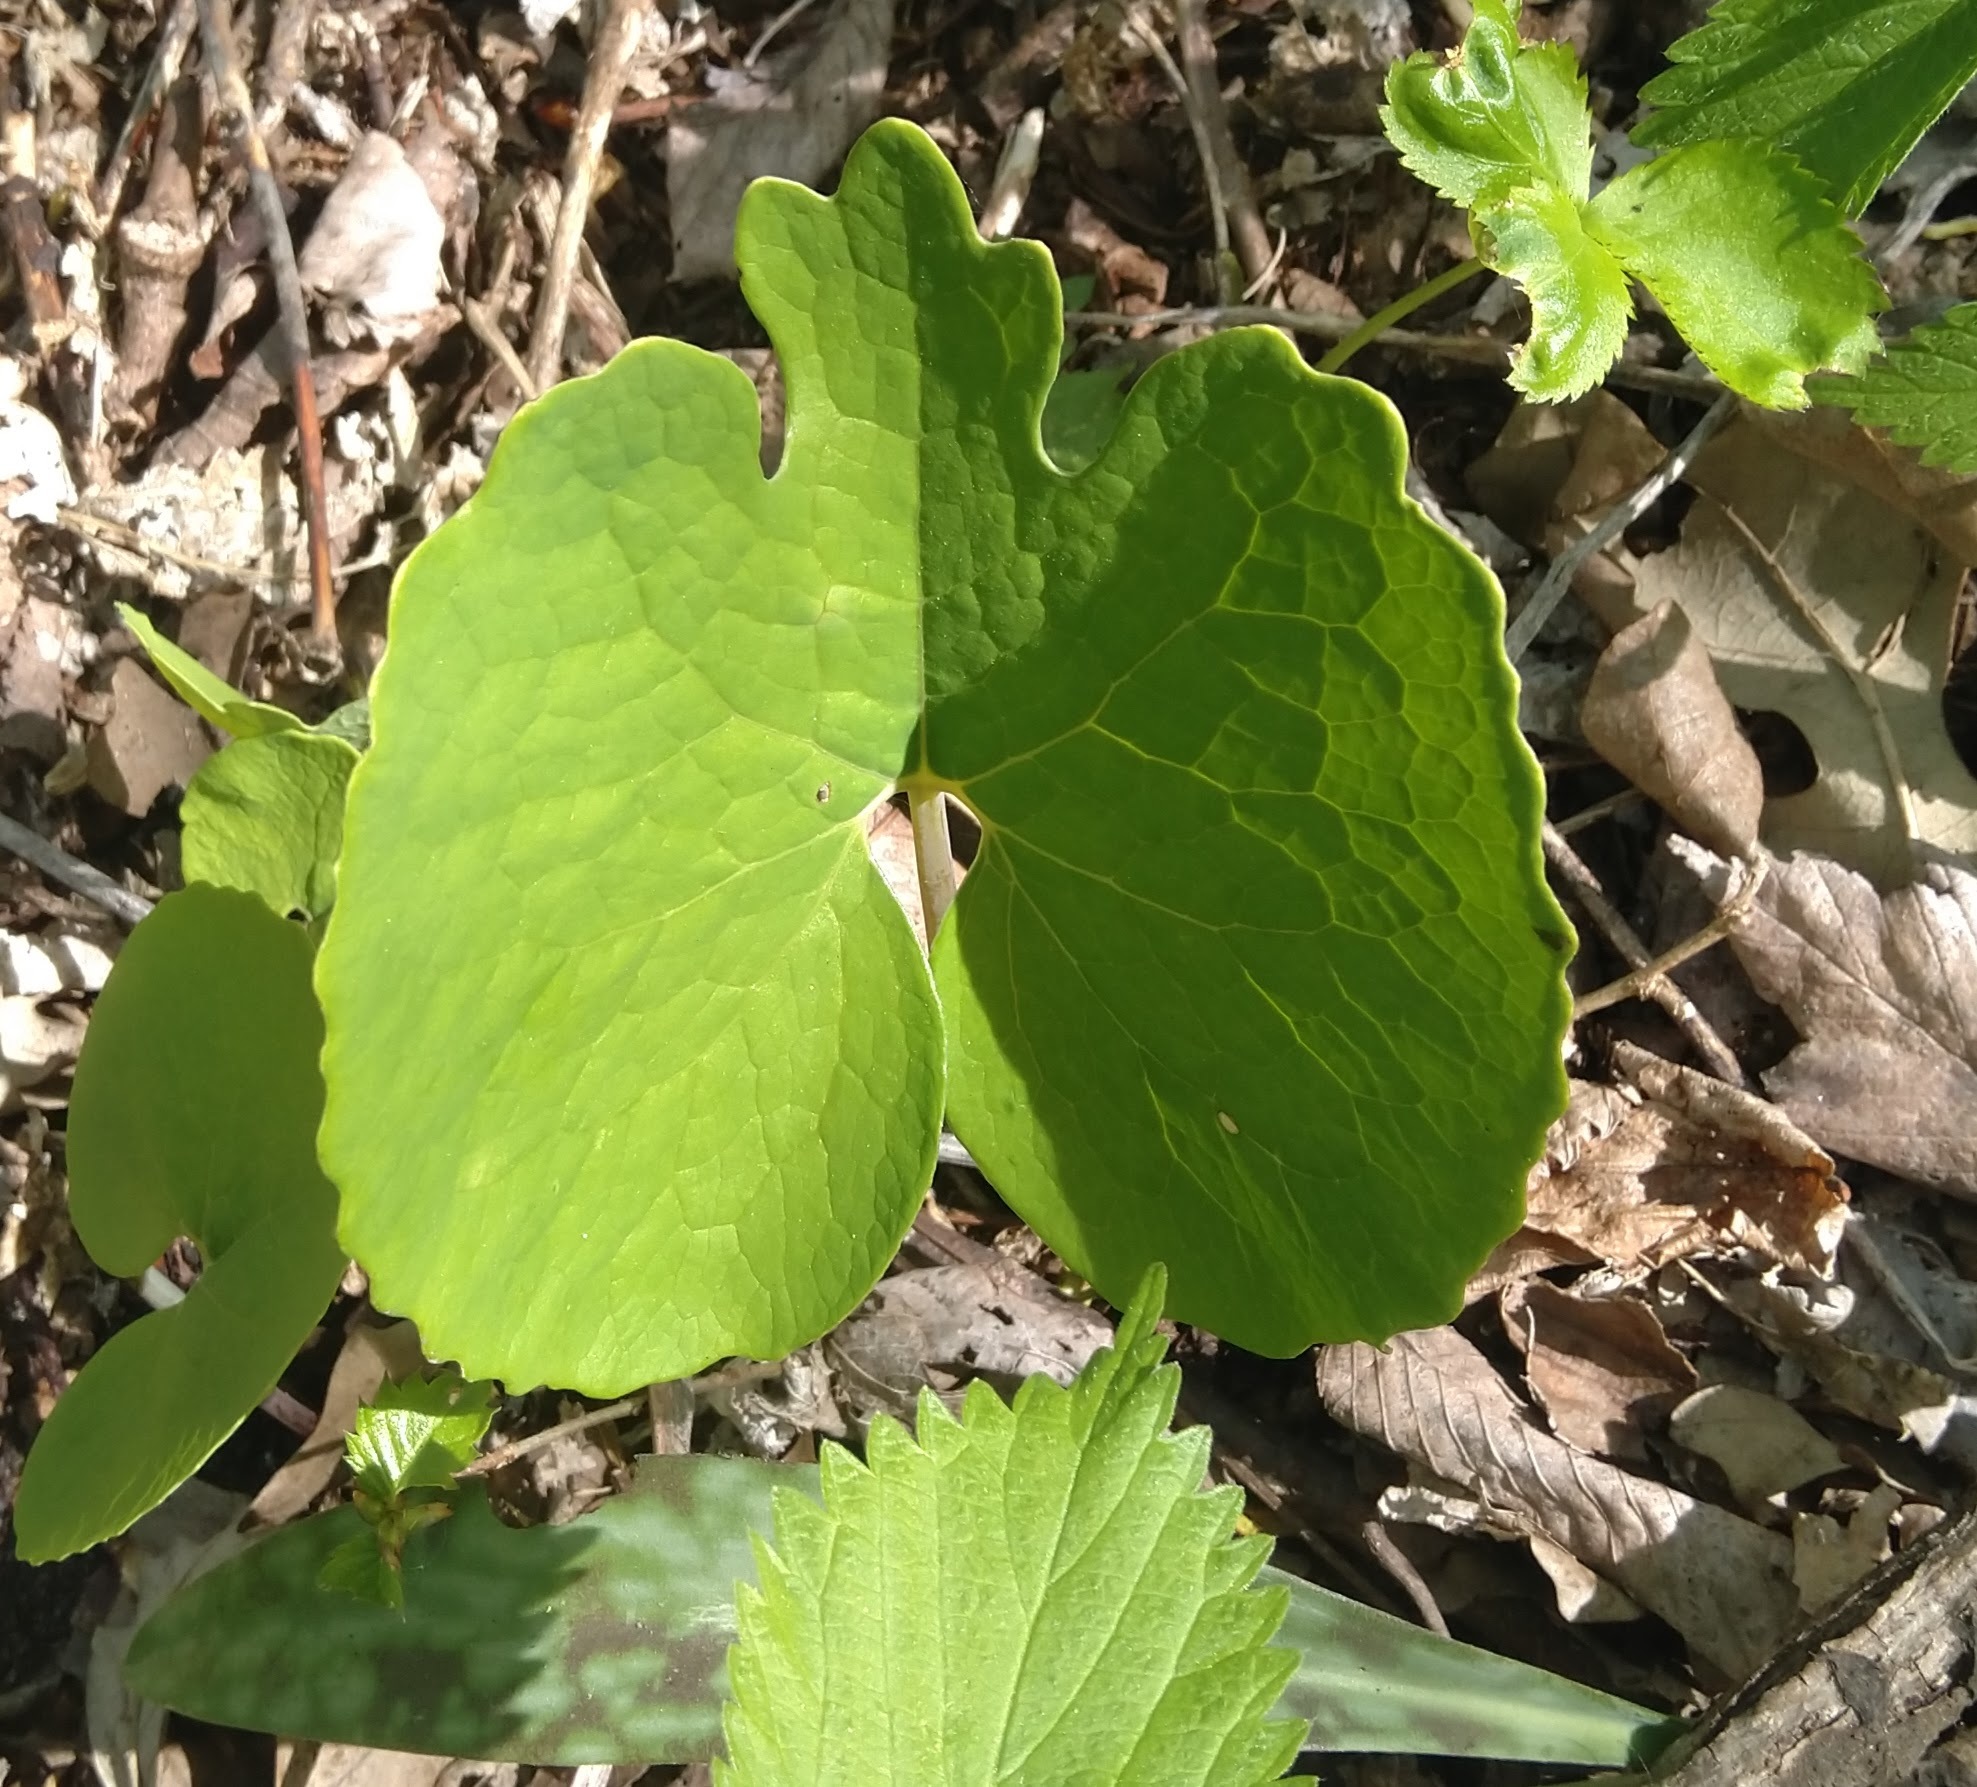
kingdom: Plantae
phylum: Tracheophyta
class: Magnoliopsida
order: Ranunculales
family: Papaveraceae
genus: Sanguinaria
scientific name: Sanguinaria canadensis
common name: Bloodroot
